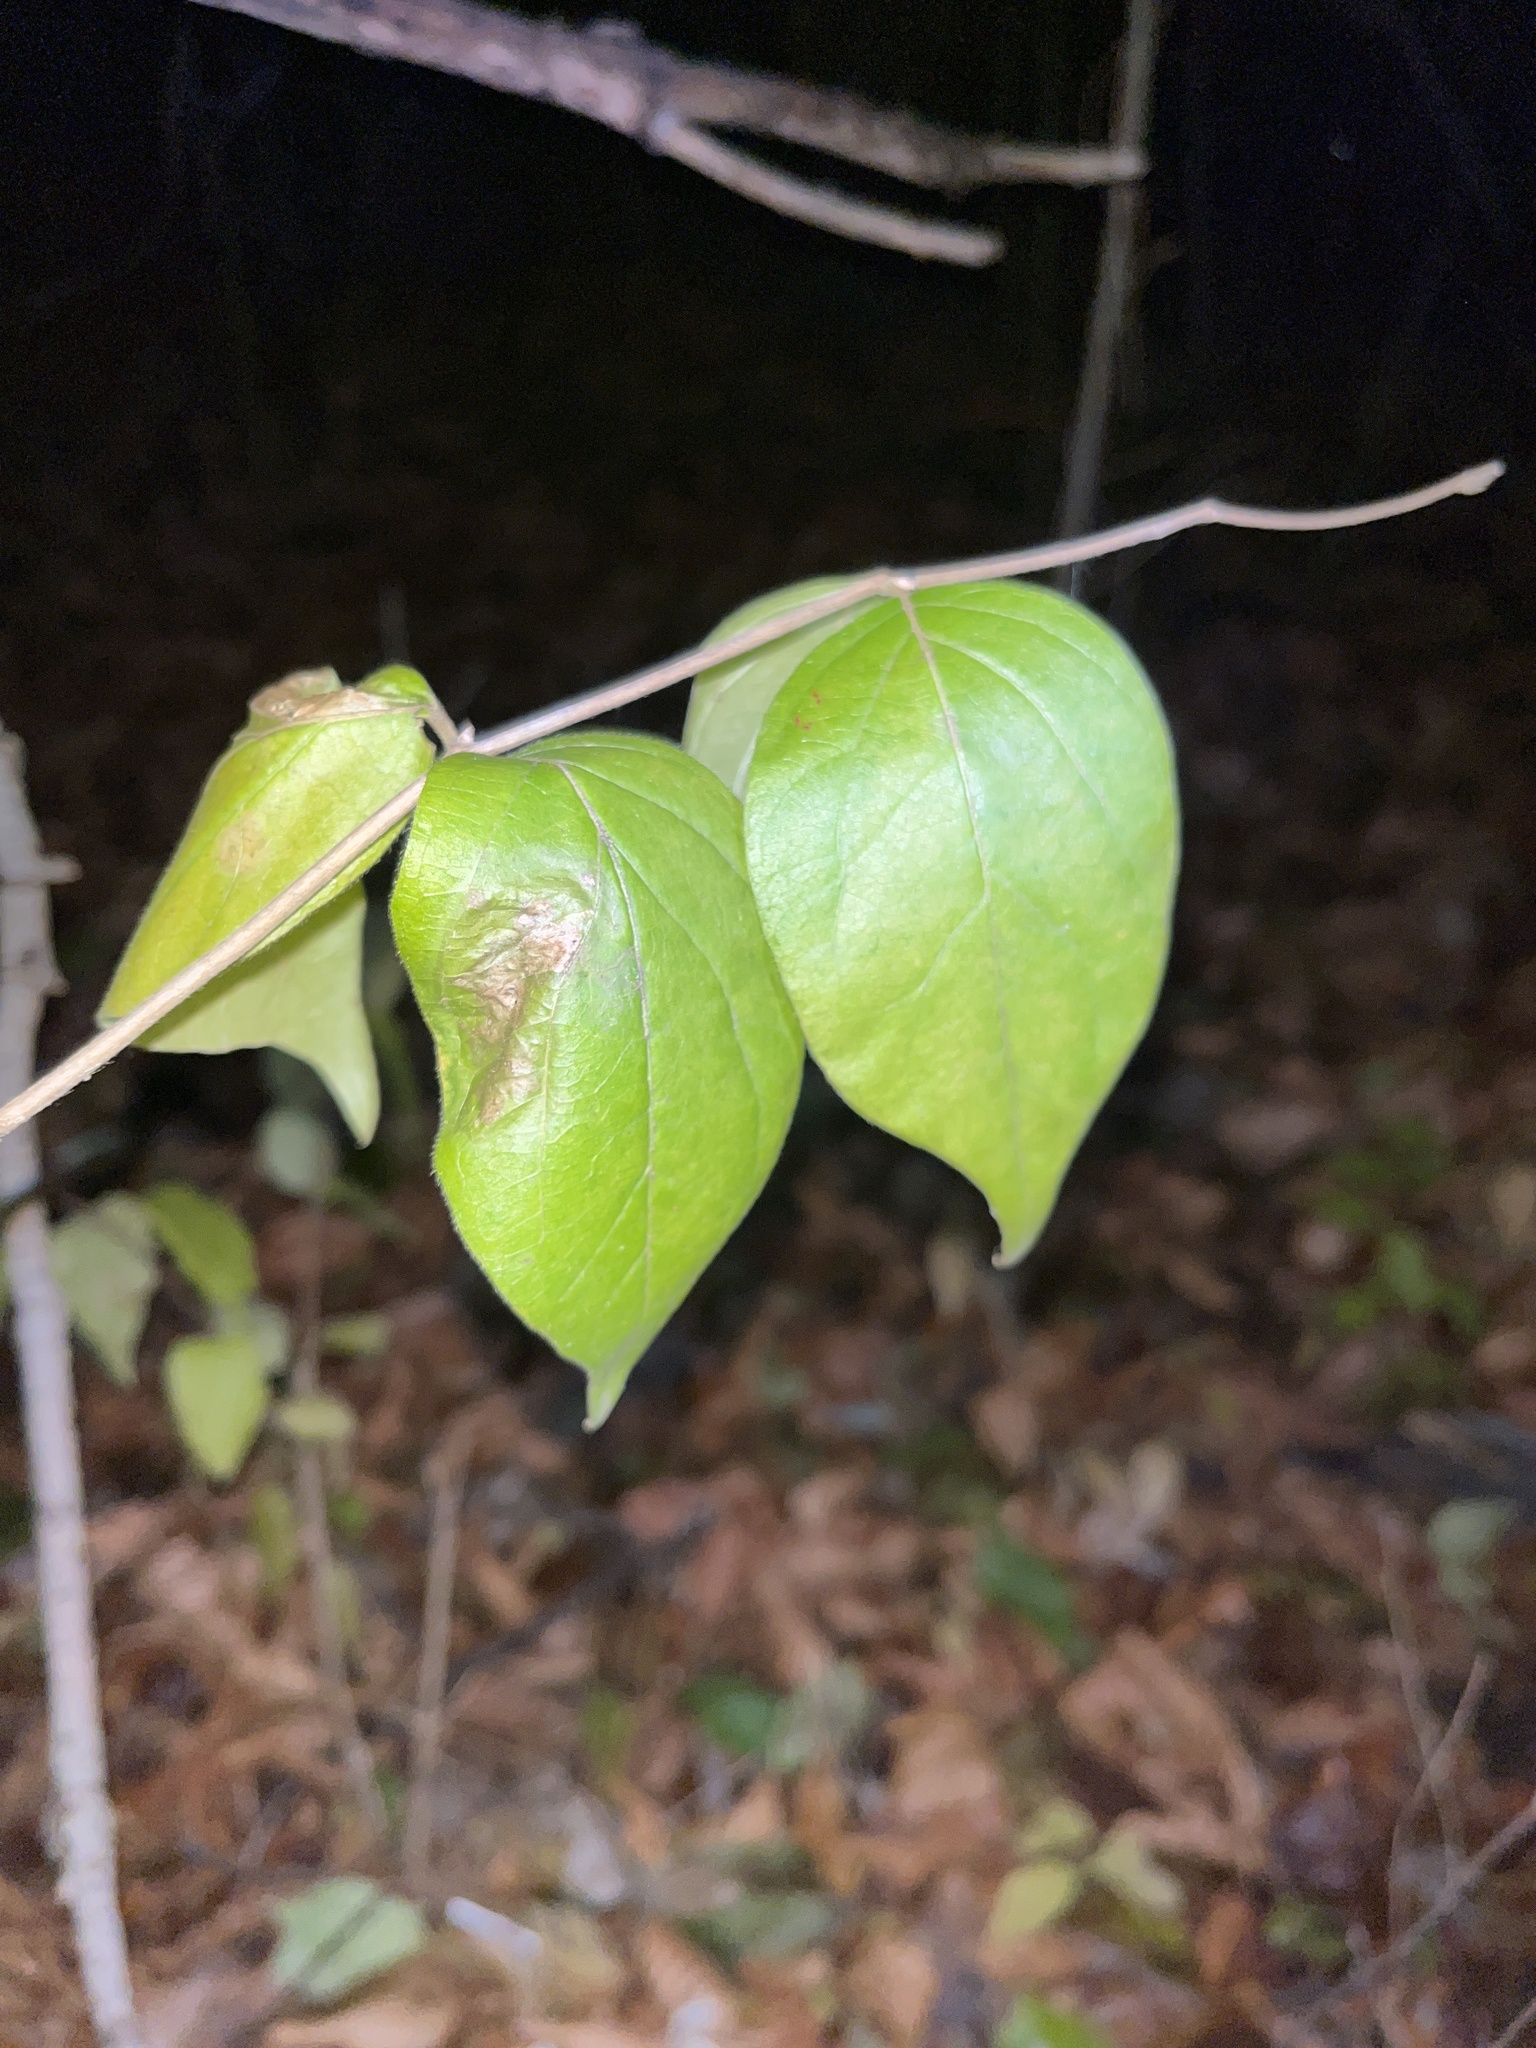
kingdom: Plantae
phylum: Tracheophyta
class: Magnoliopsida
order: Dipsacales
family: Caprifoliaceae
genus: Lonicera
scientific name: Lonicera maackii
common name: Amur honeysuckle
